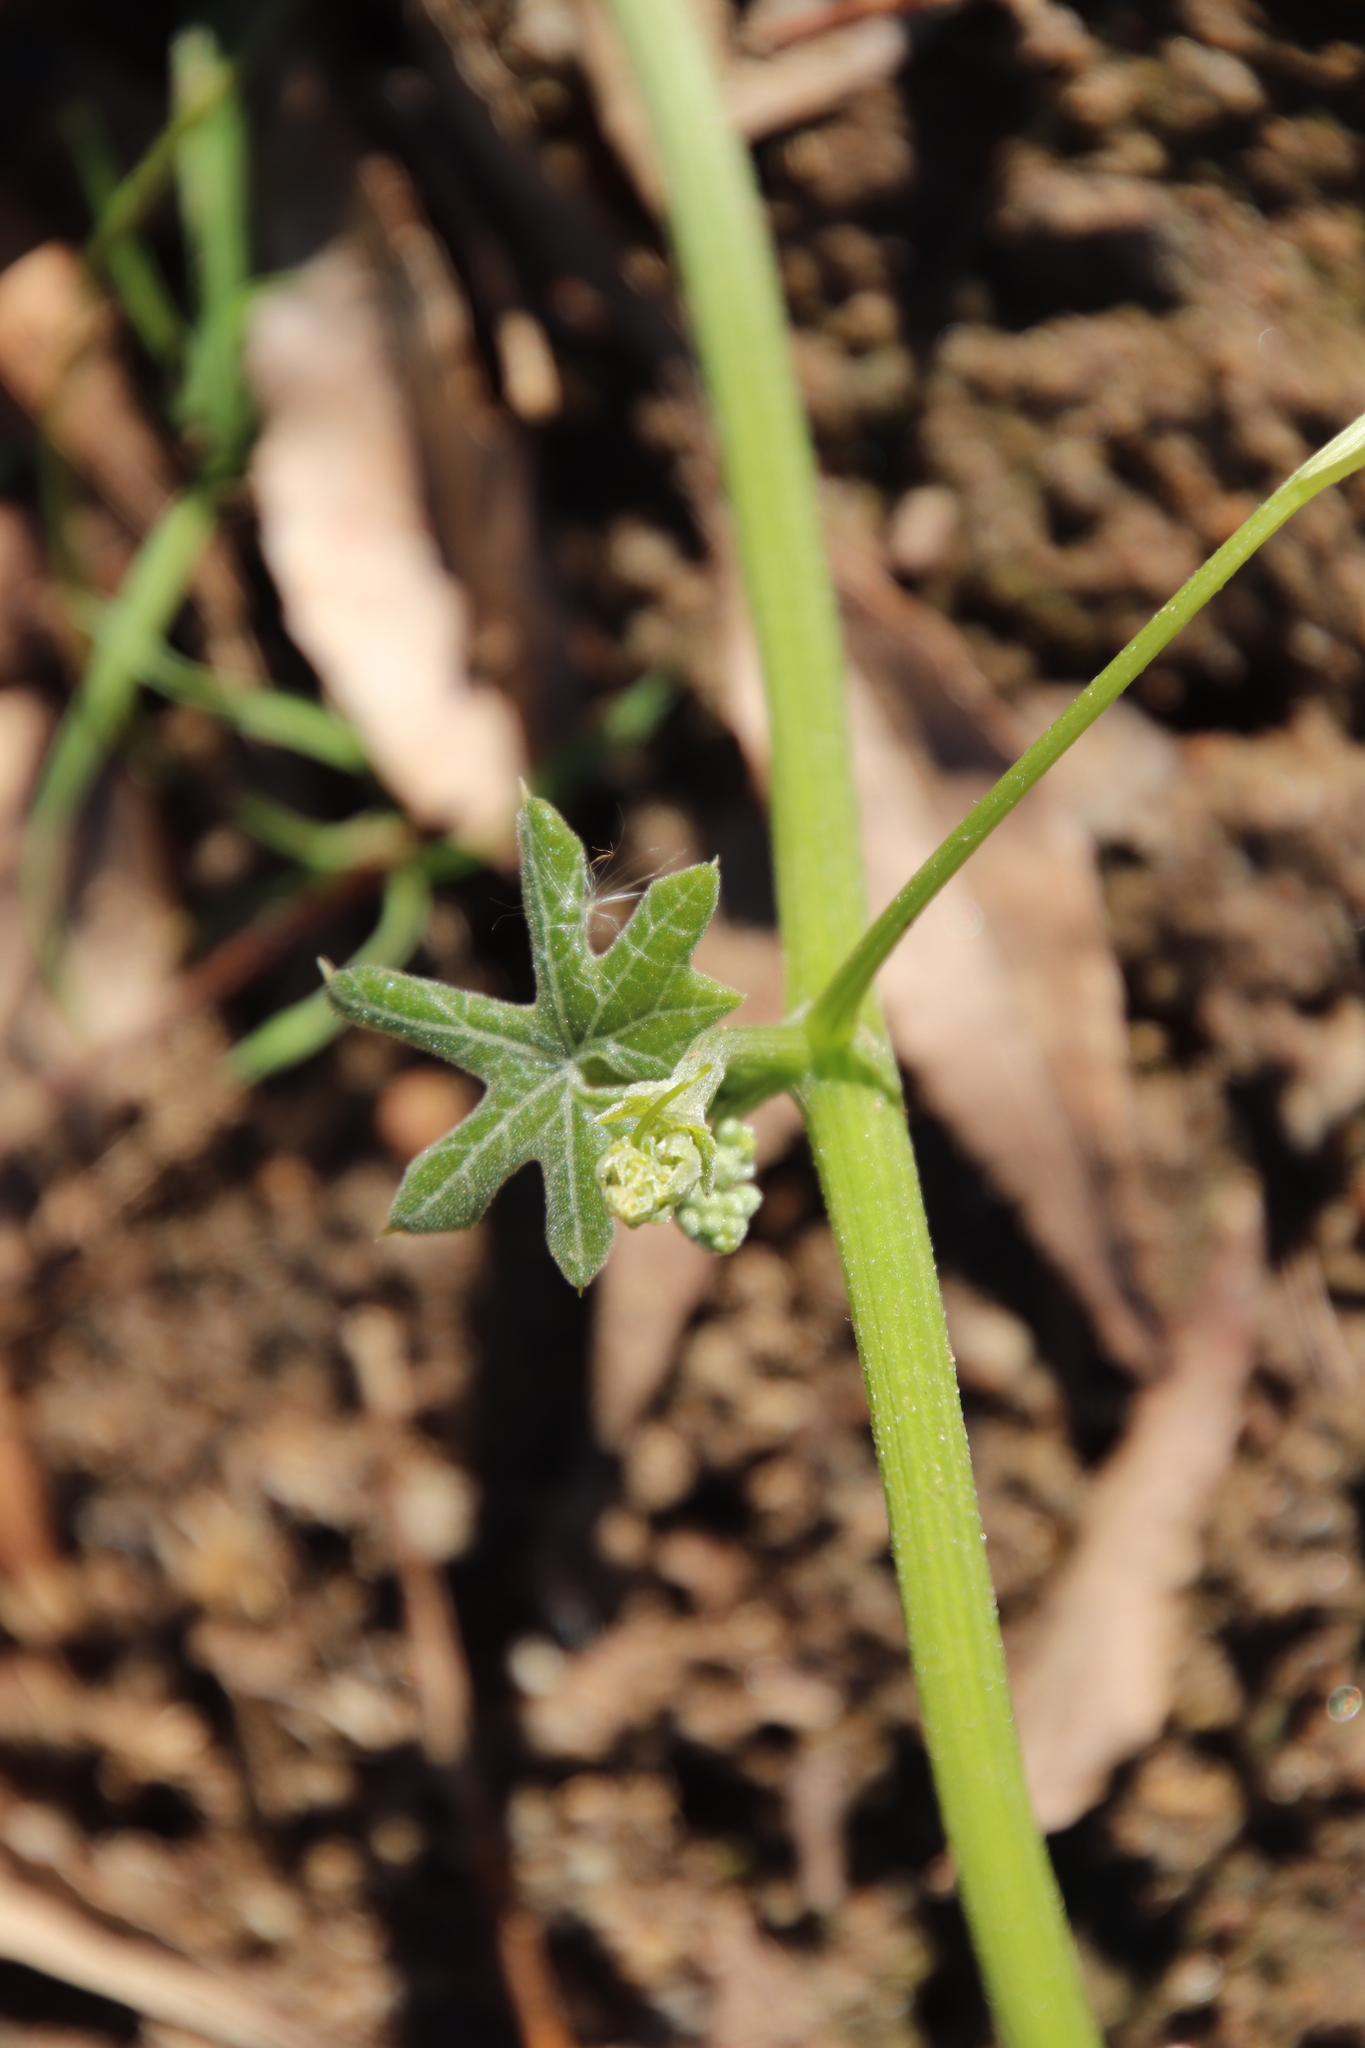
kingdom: Plantae
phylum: Tracheophyta
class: Magnoliopsida
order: Cucurbitales
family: Cucurbitaceae
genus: Marah
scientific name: Marah macrocarpa
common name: Cucamonga manroot
